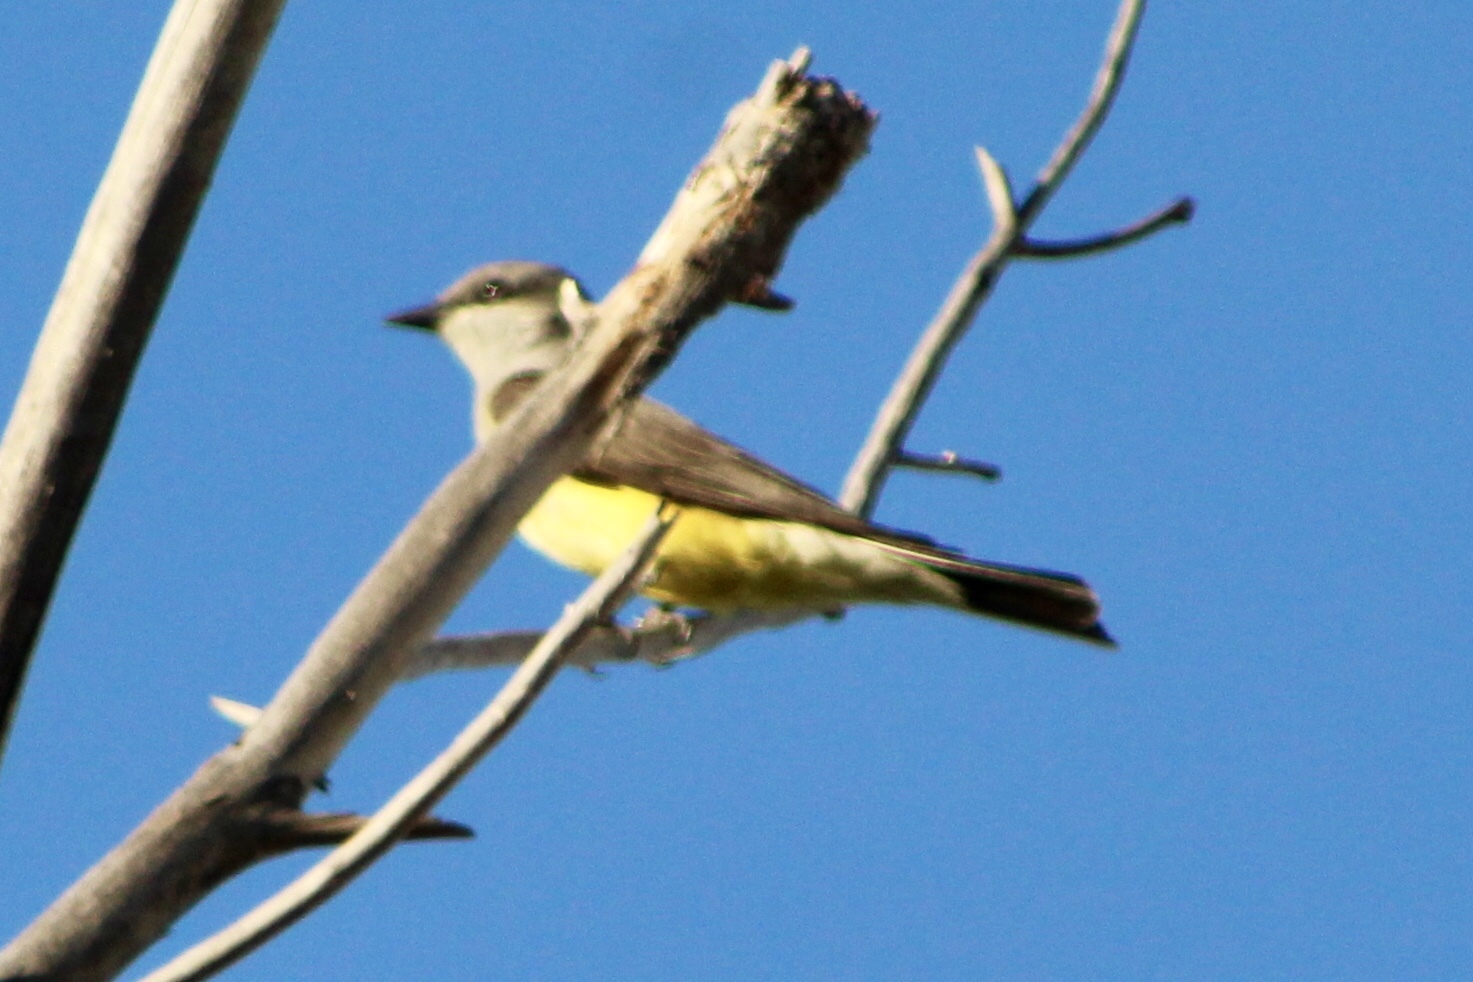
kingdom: Animalia
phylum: Chordata
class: Aves
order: Passeriformes
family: Tyrannidae
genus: Tyrannus
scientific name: Tyrannus verticalis
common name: Western kingbird
